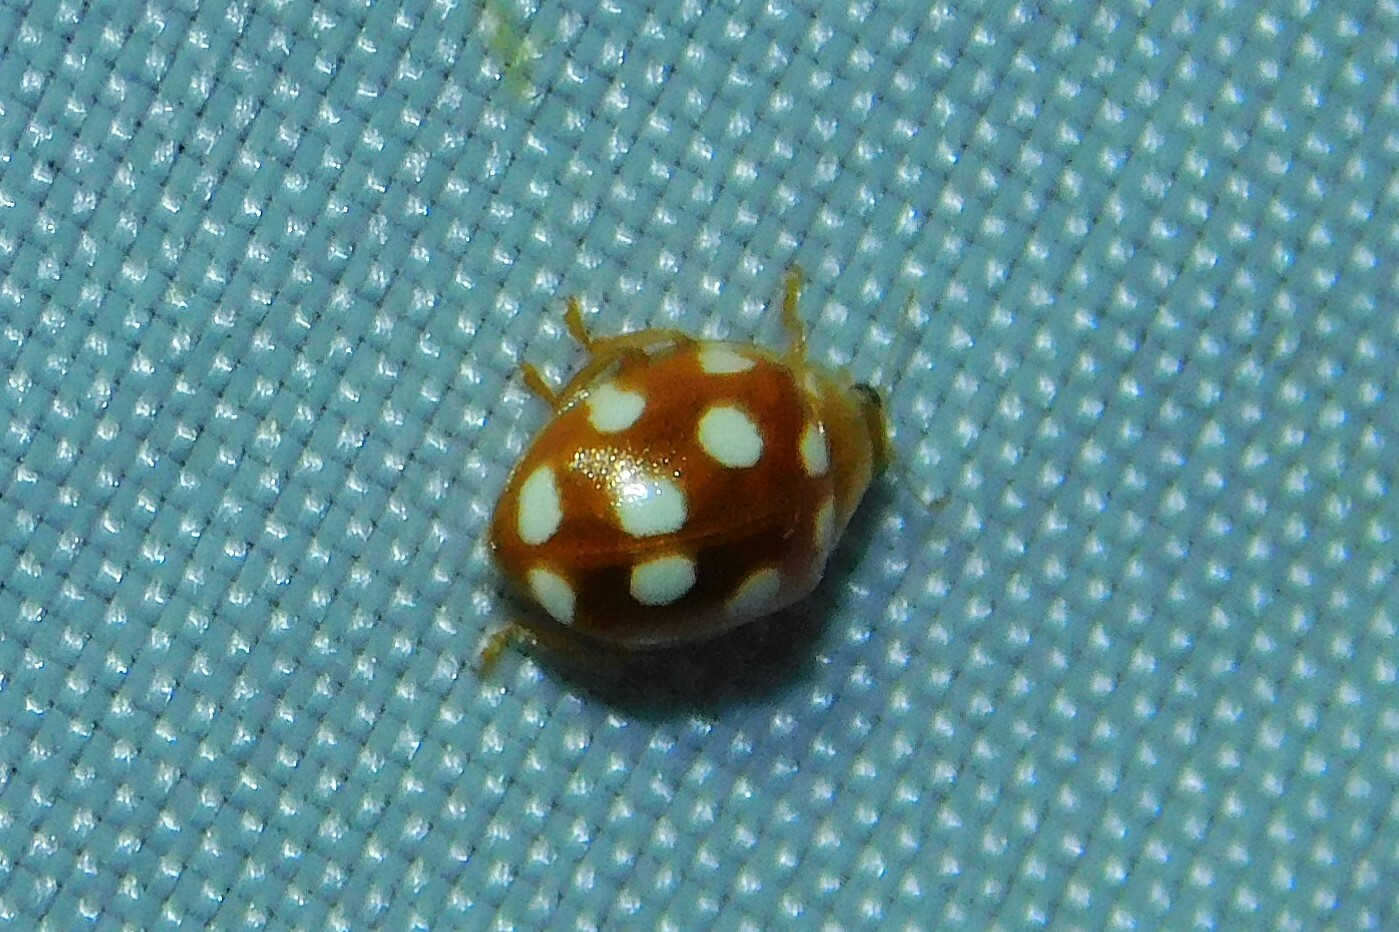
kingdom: Animalia
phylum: Arthropoda
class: Insecta
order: Coleoptera
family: Coccinellidae
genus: Vibidia
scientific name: Vibidia duodecimguttata
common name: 12-spot ladybird
